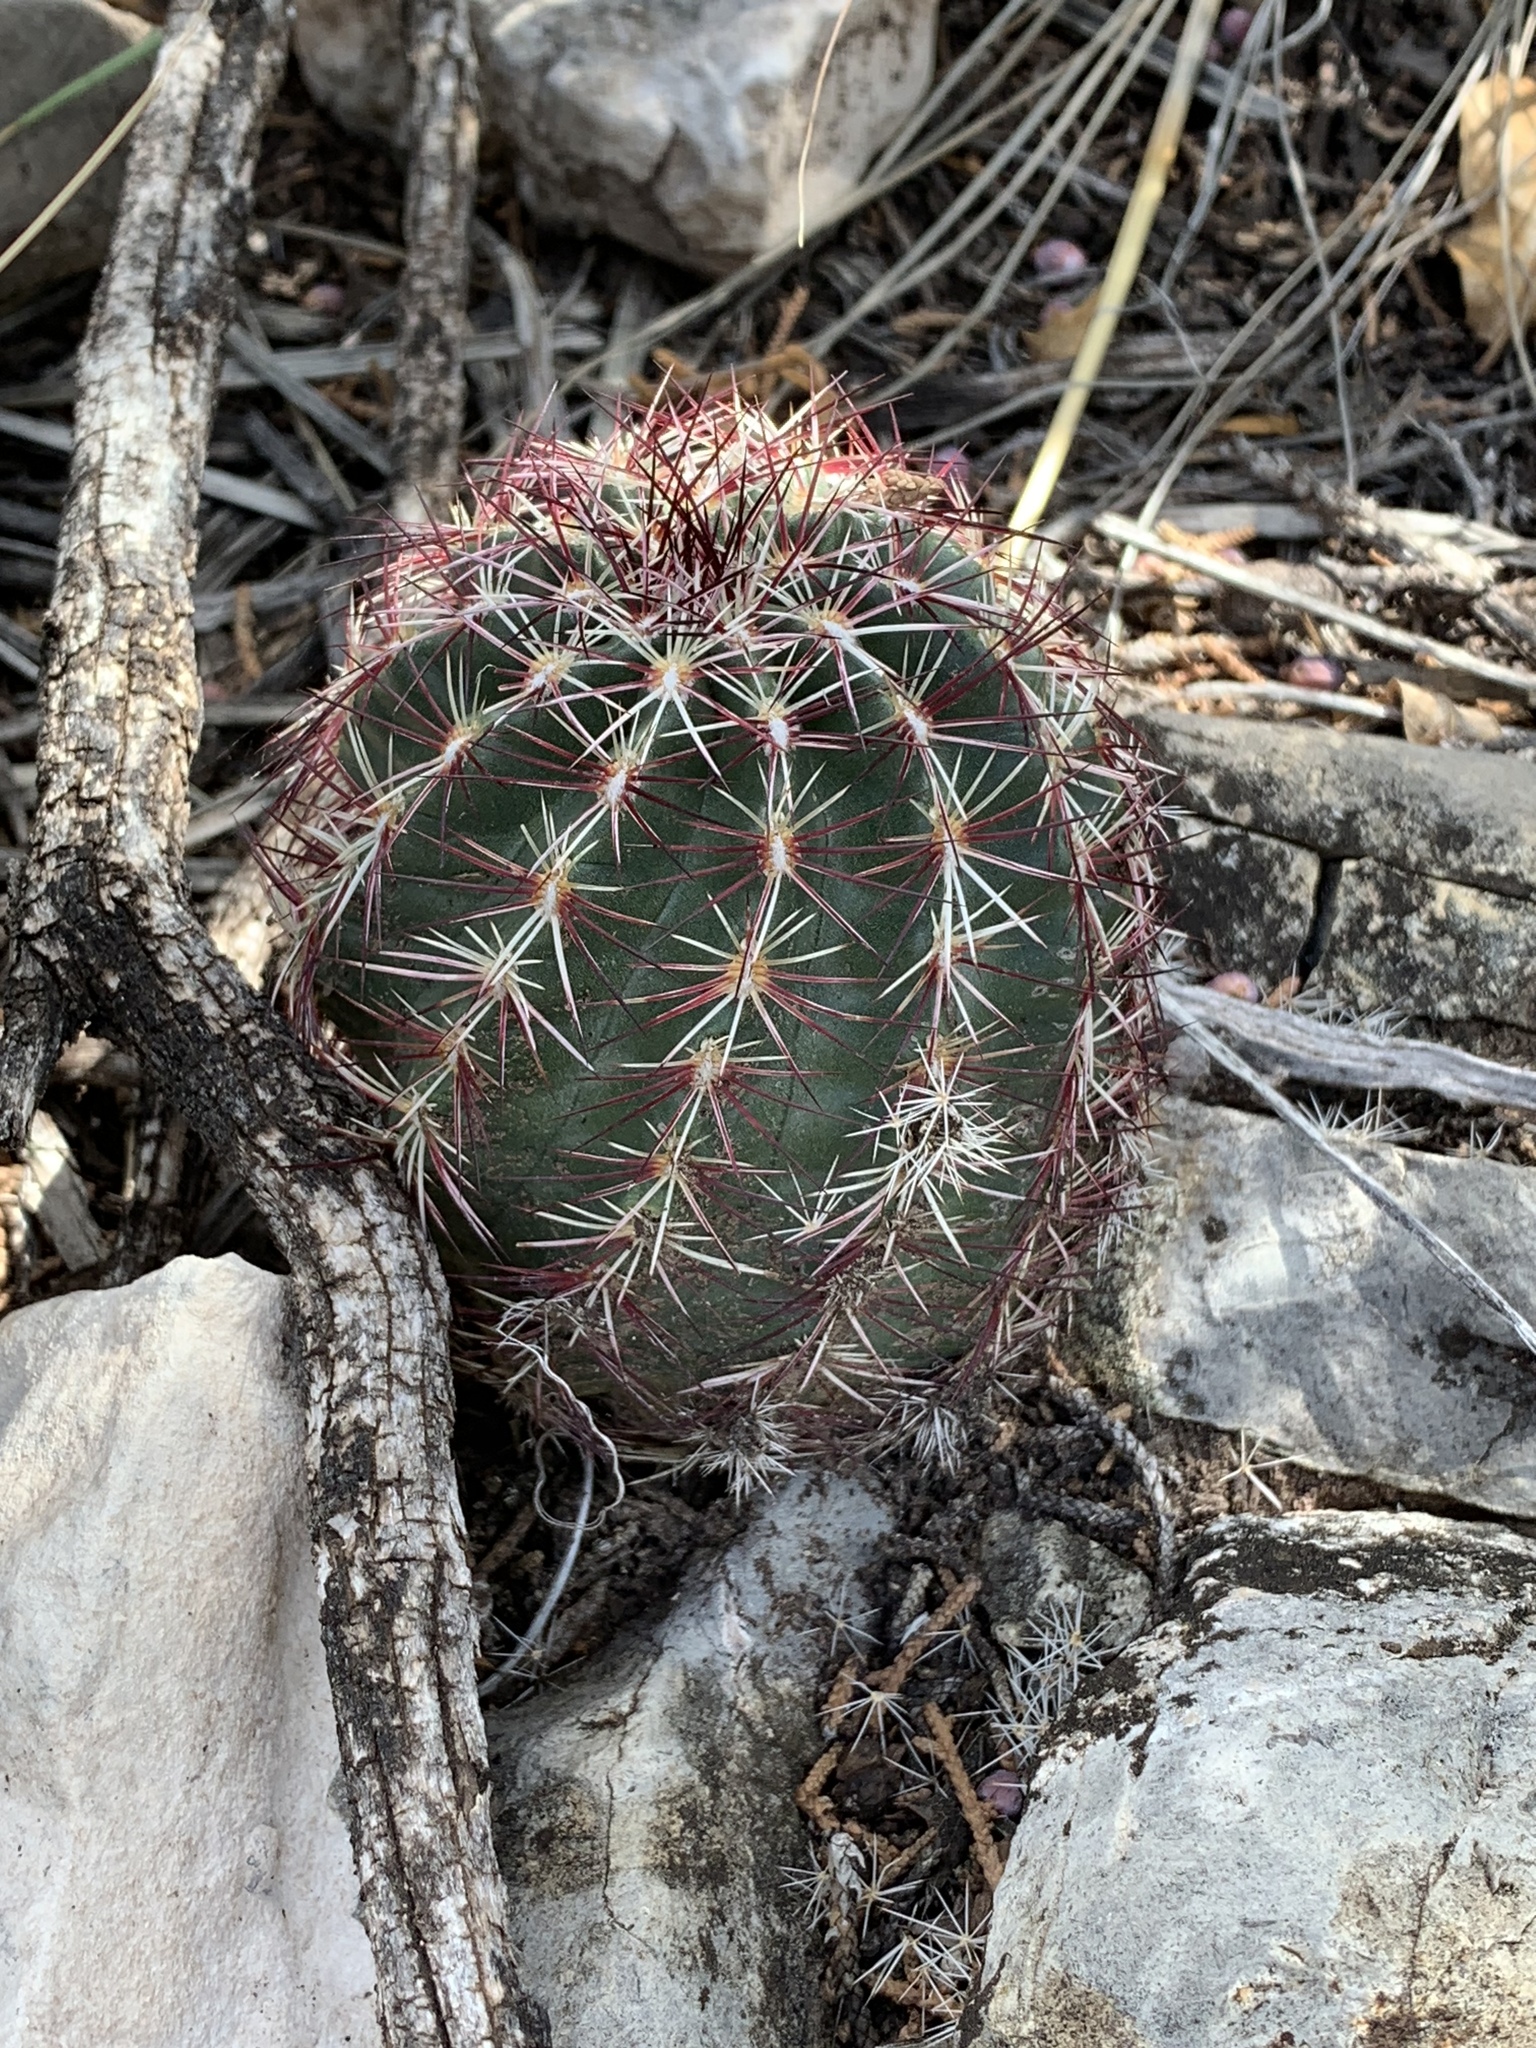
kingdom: Plantae
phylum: Tracheophyta
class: Magnoliopsida
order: Caryophyllales
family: Cactaceae
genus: Echinocereus
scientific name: Echinocereus viridiflorus
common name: Nylon hedgehog cactus
